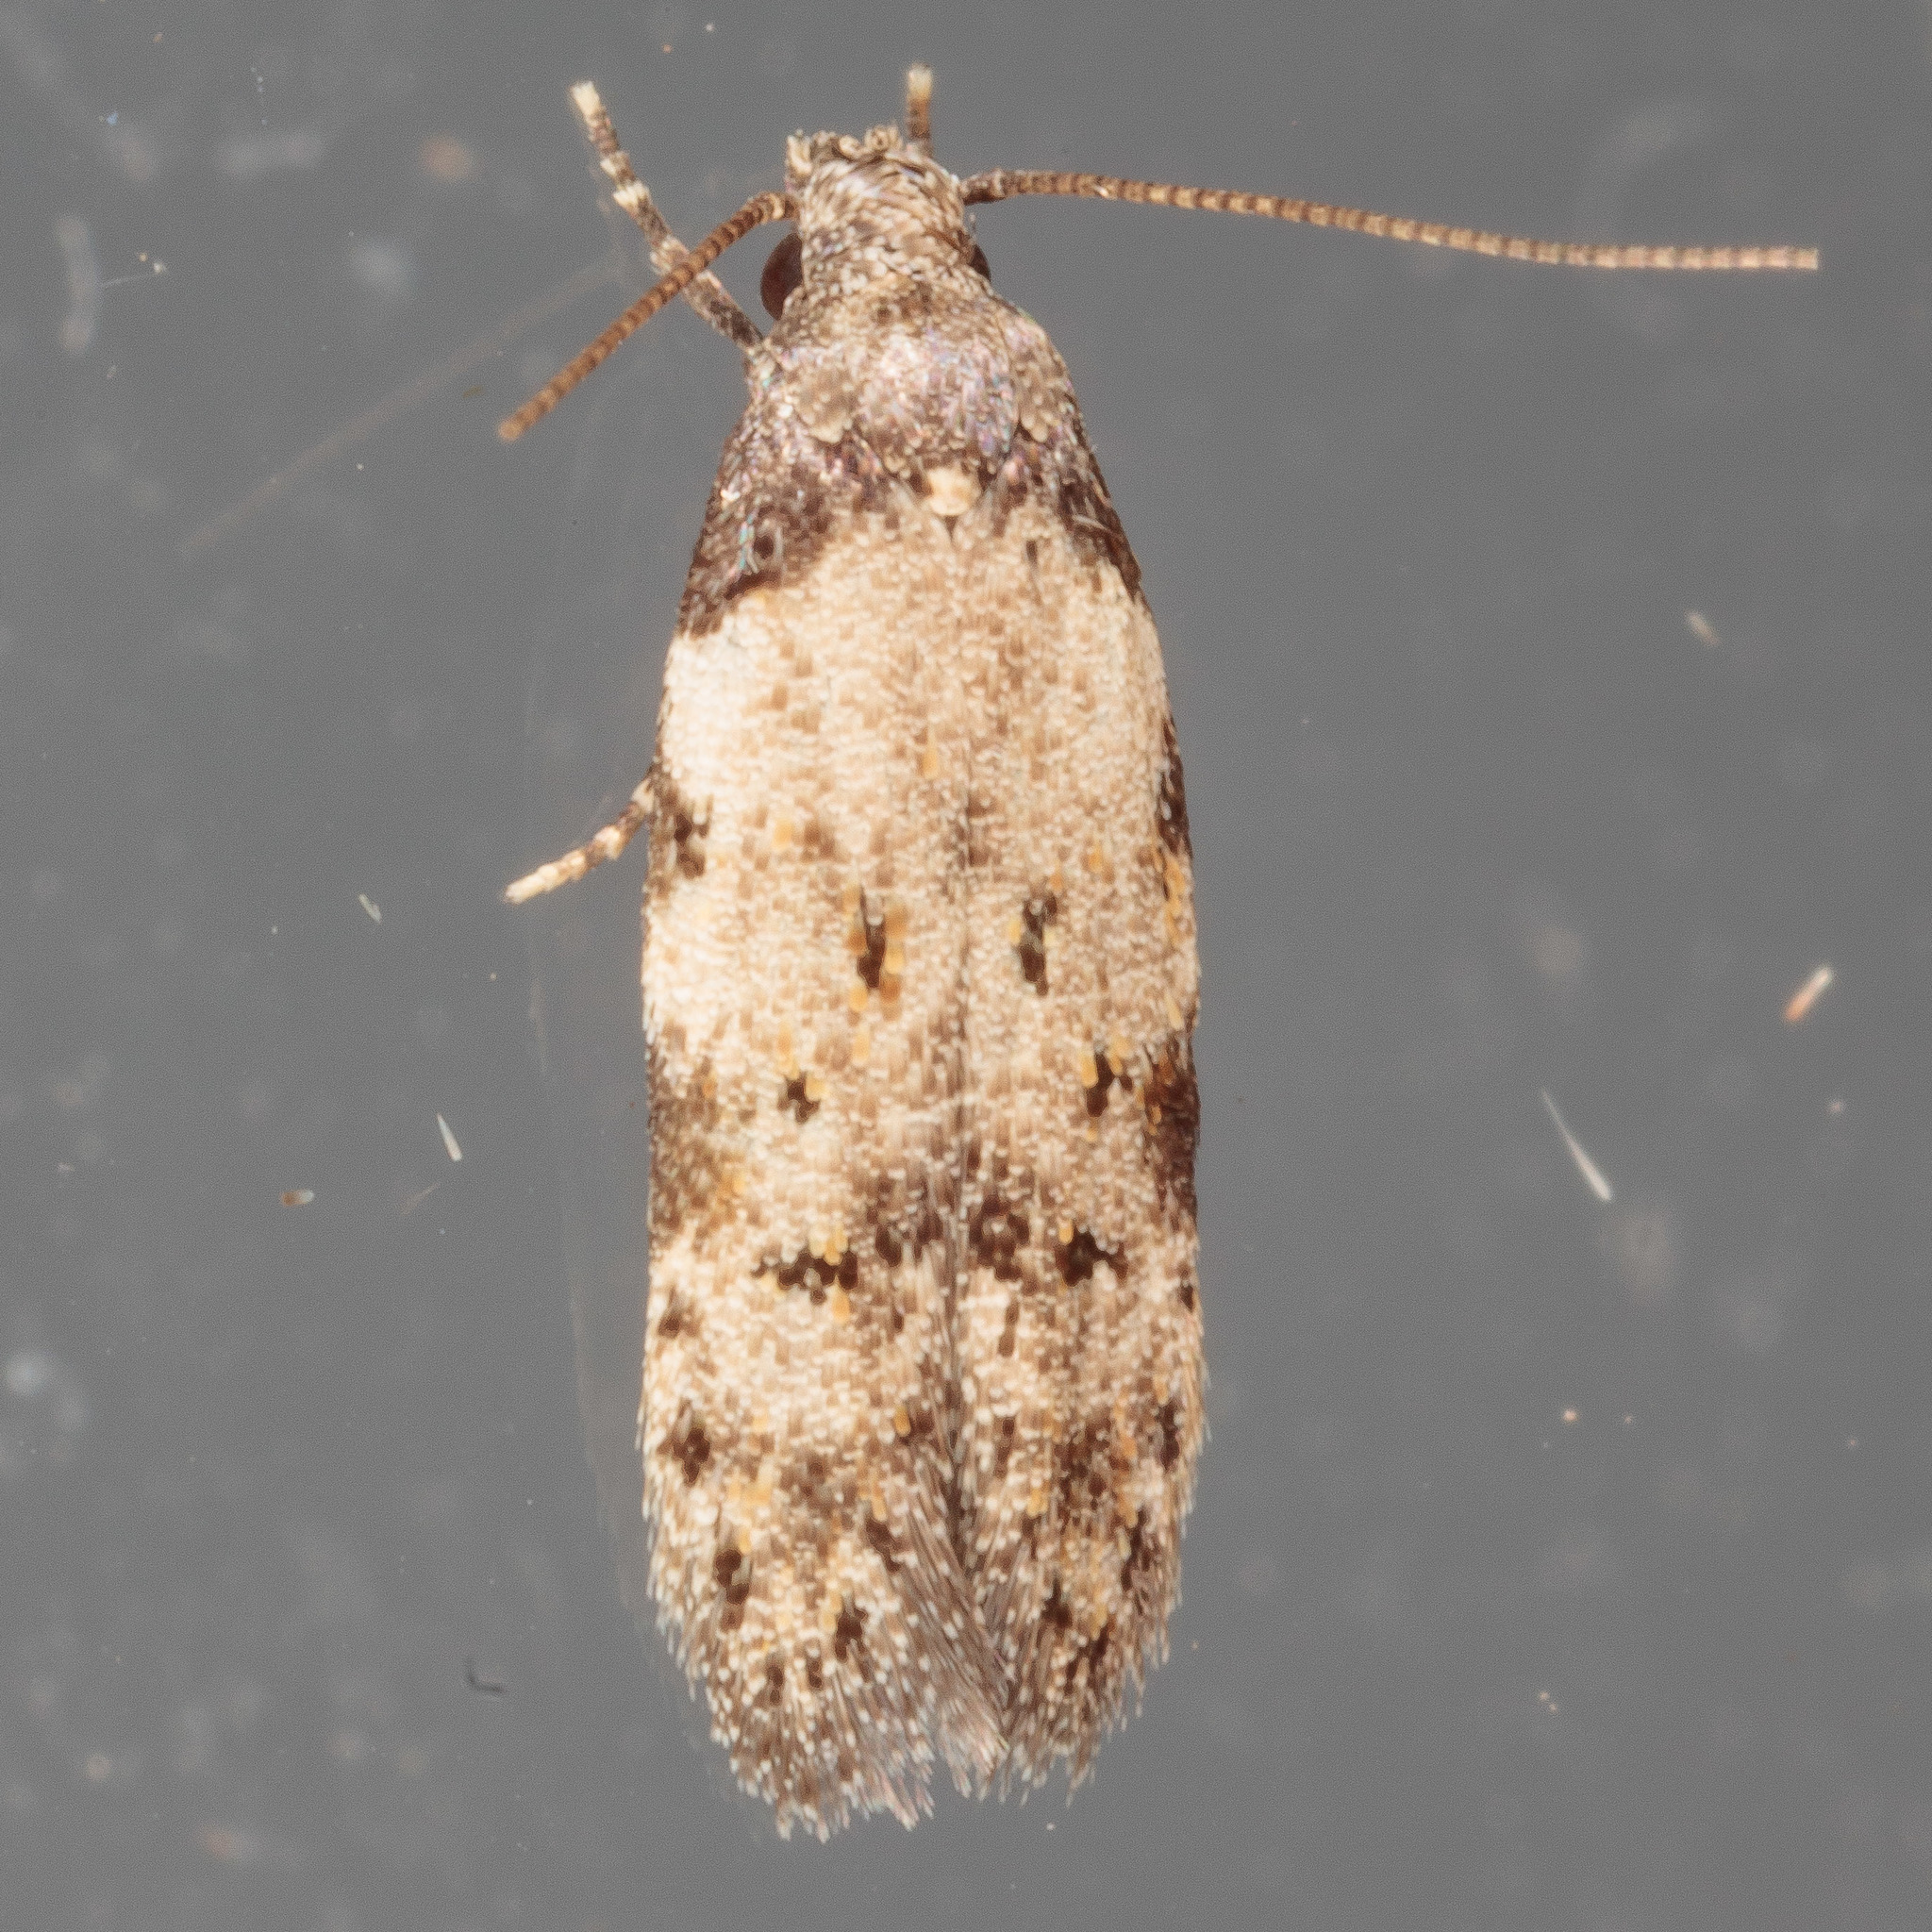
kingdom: Animalia
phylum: Arthropoda
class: Insecta
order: Lepidoptera
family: Autostichidae
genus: Taygete
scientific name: Taygete attributella
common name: Triangle-marked twirler moth
